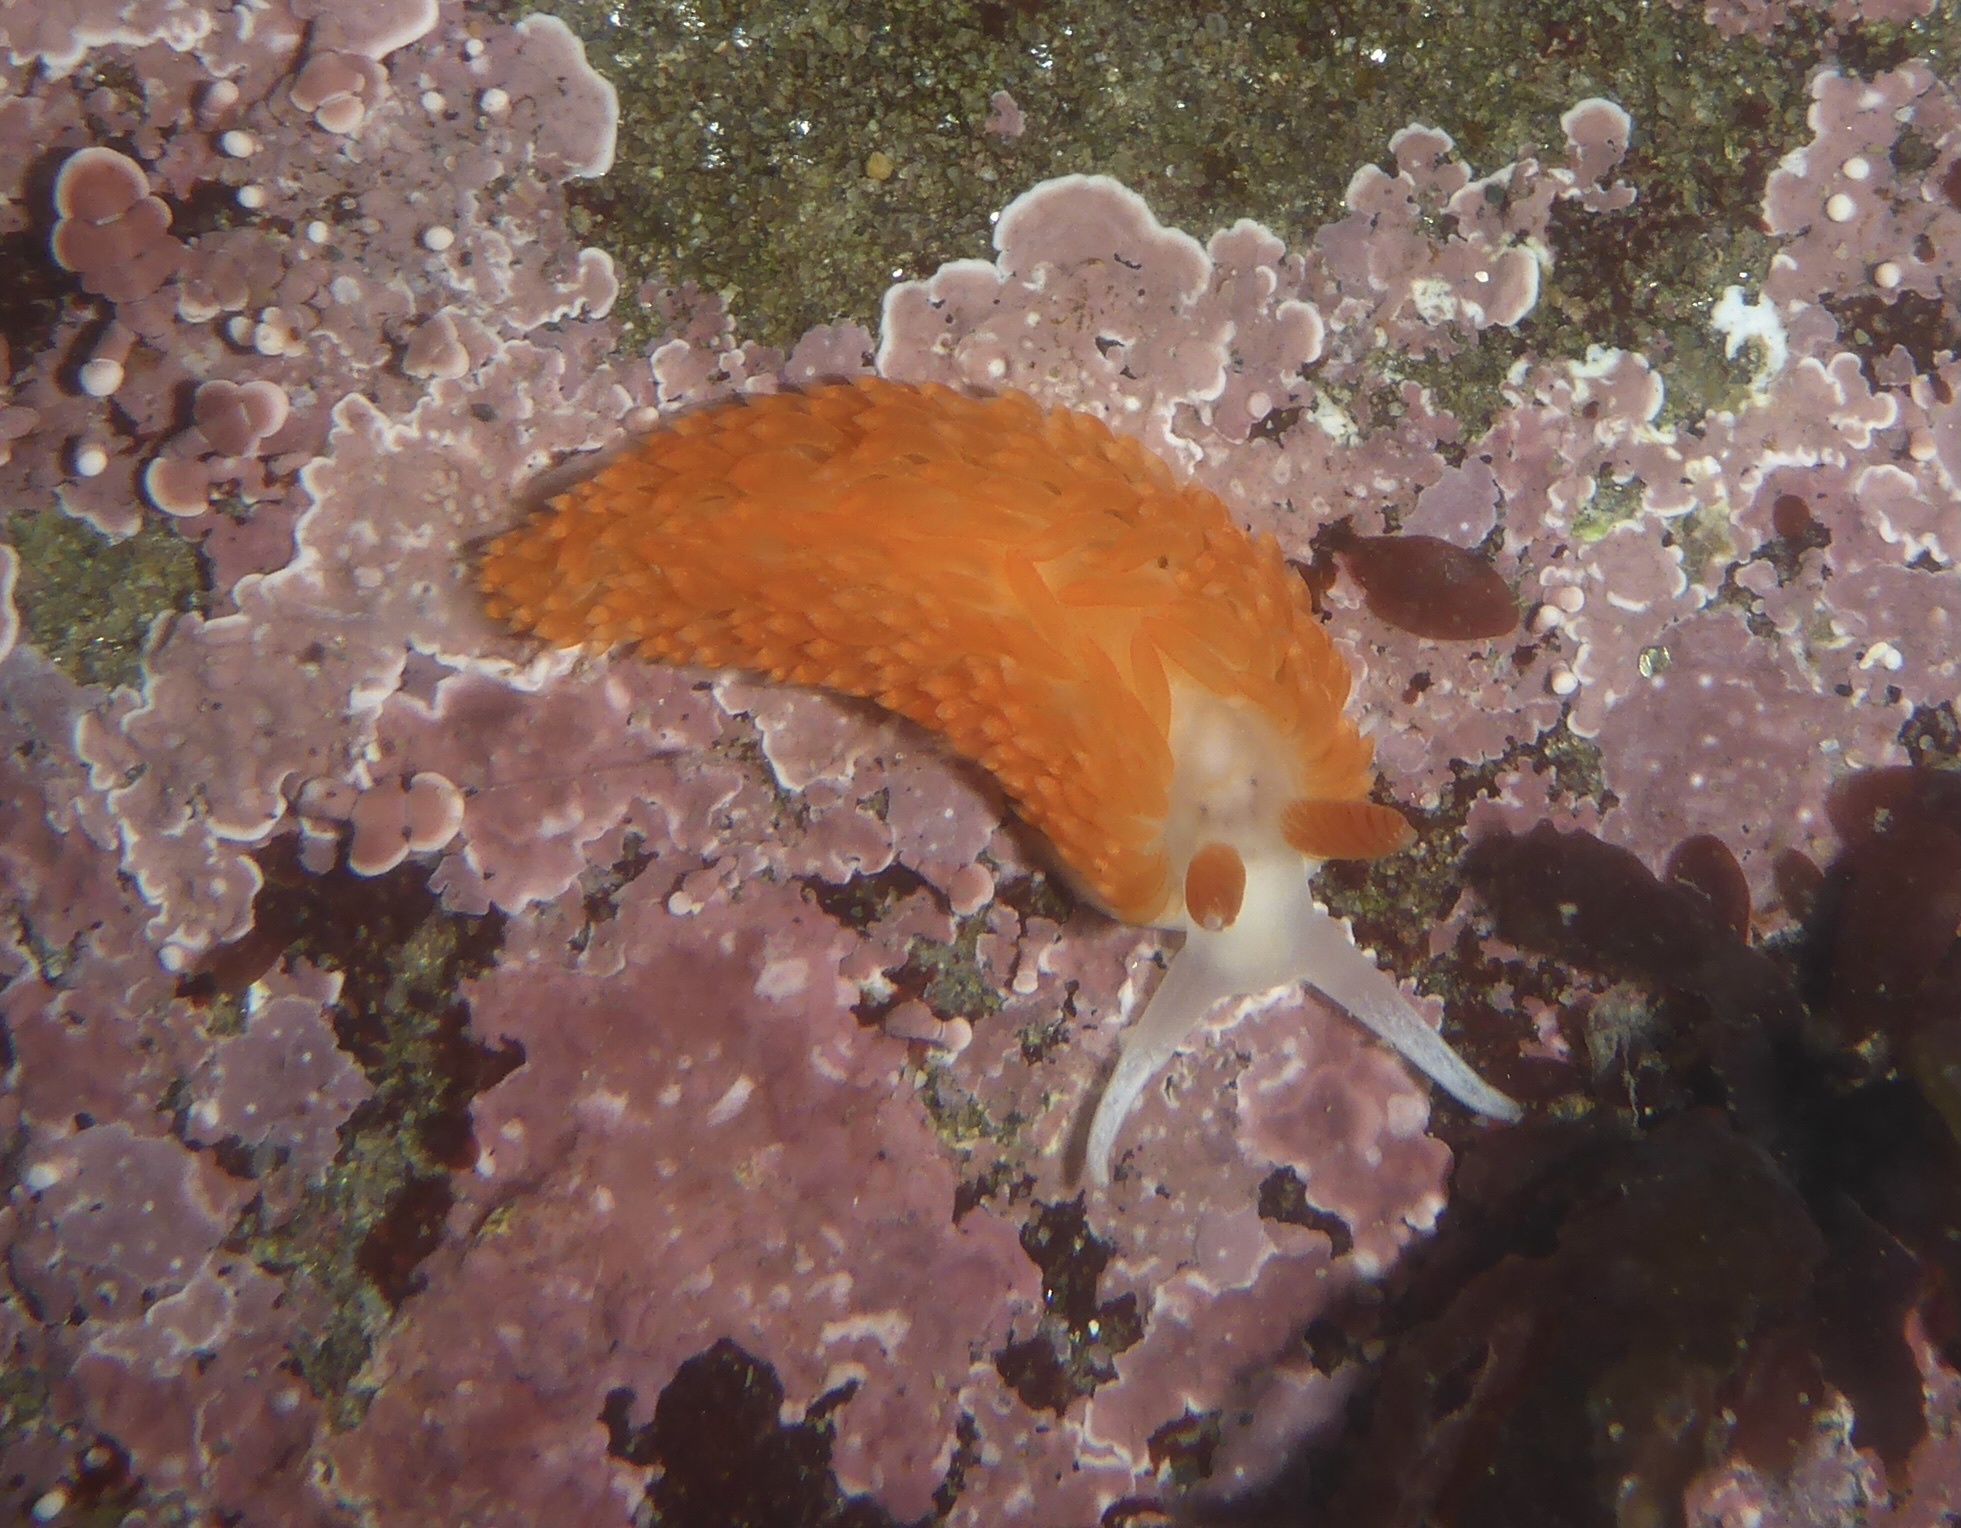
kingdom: Animalia
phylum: Mollusca
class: Gastropoda
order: Nudibranchia
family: Aeolidiidae
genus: Anteaeolidiella
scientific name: Anteaeolidiella oliviae
